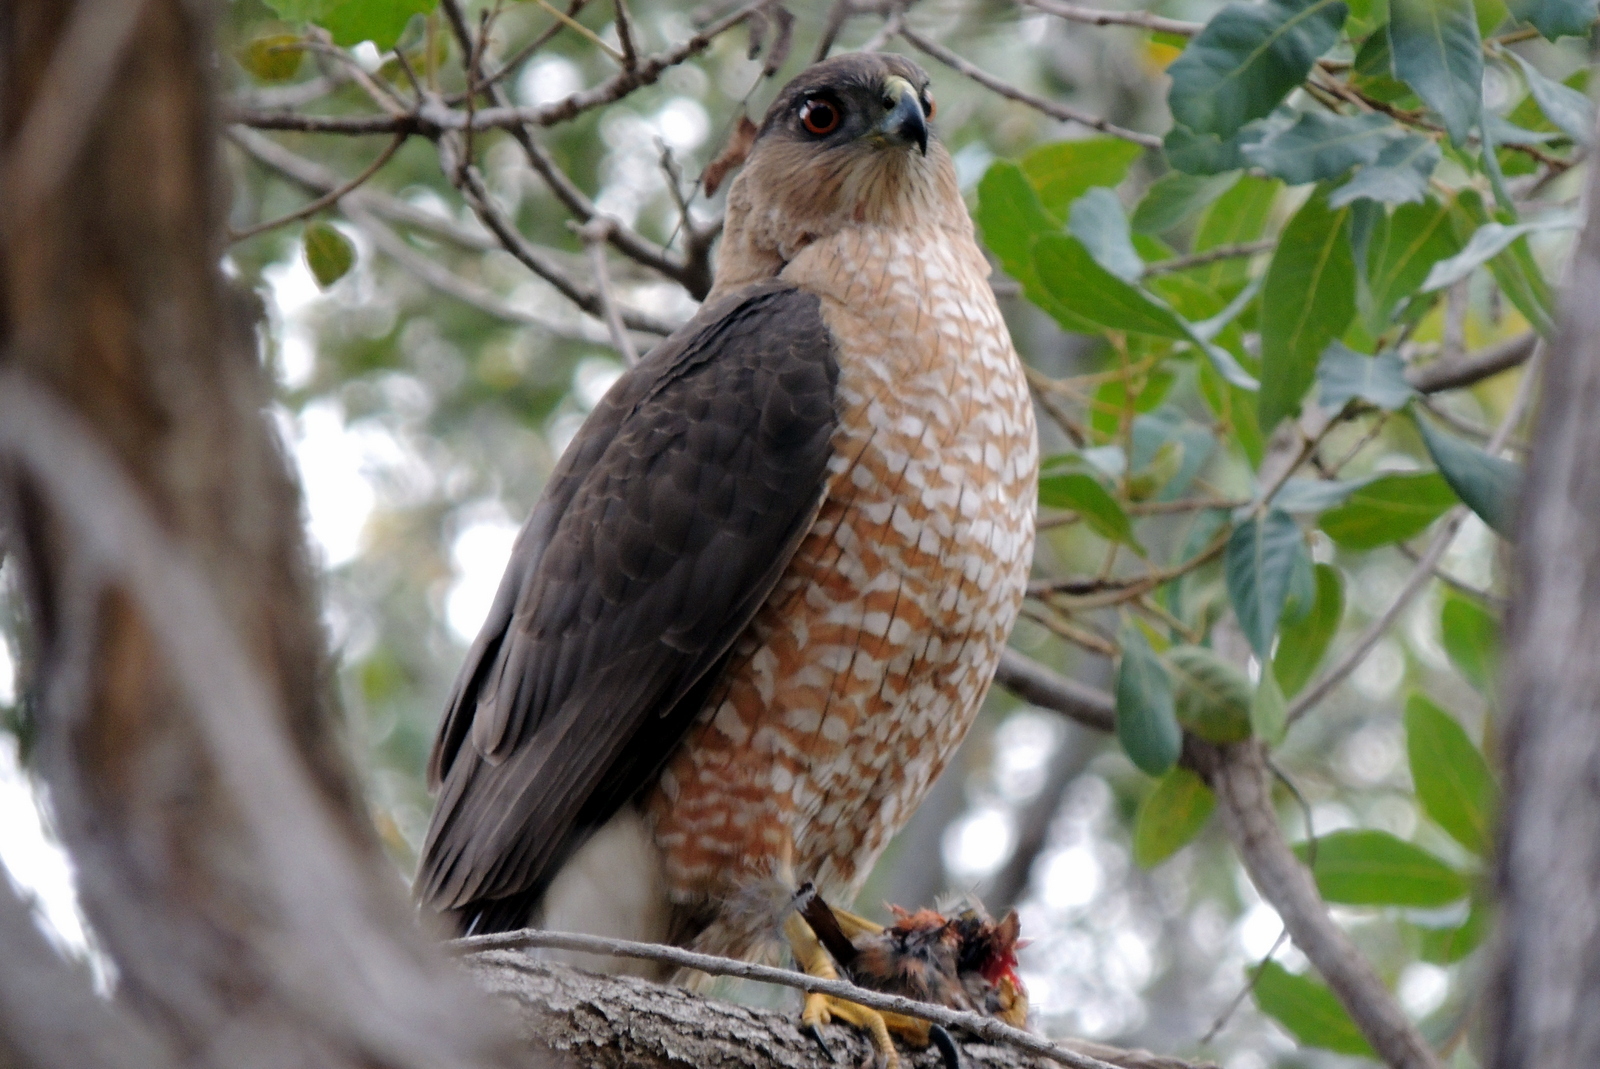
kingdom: Animalia
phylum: Chordata
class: Aves
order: Passeriformes
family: Fringillidae
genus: Haemorhous
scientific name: Haemorhous mexicanus
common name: House finch
